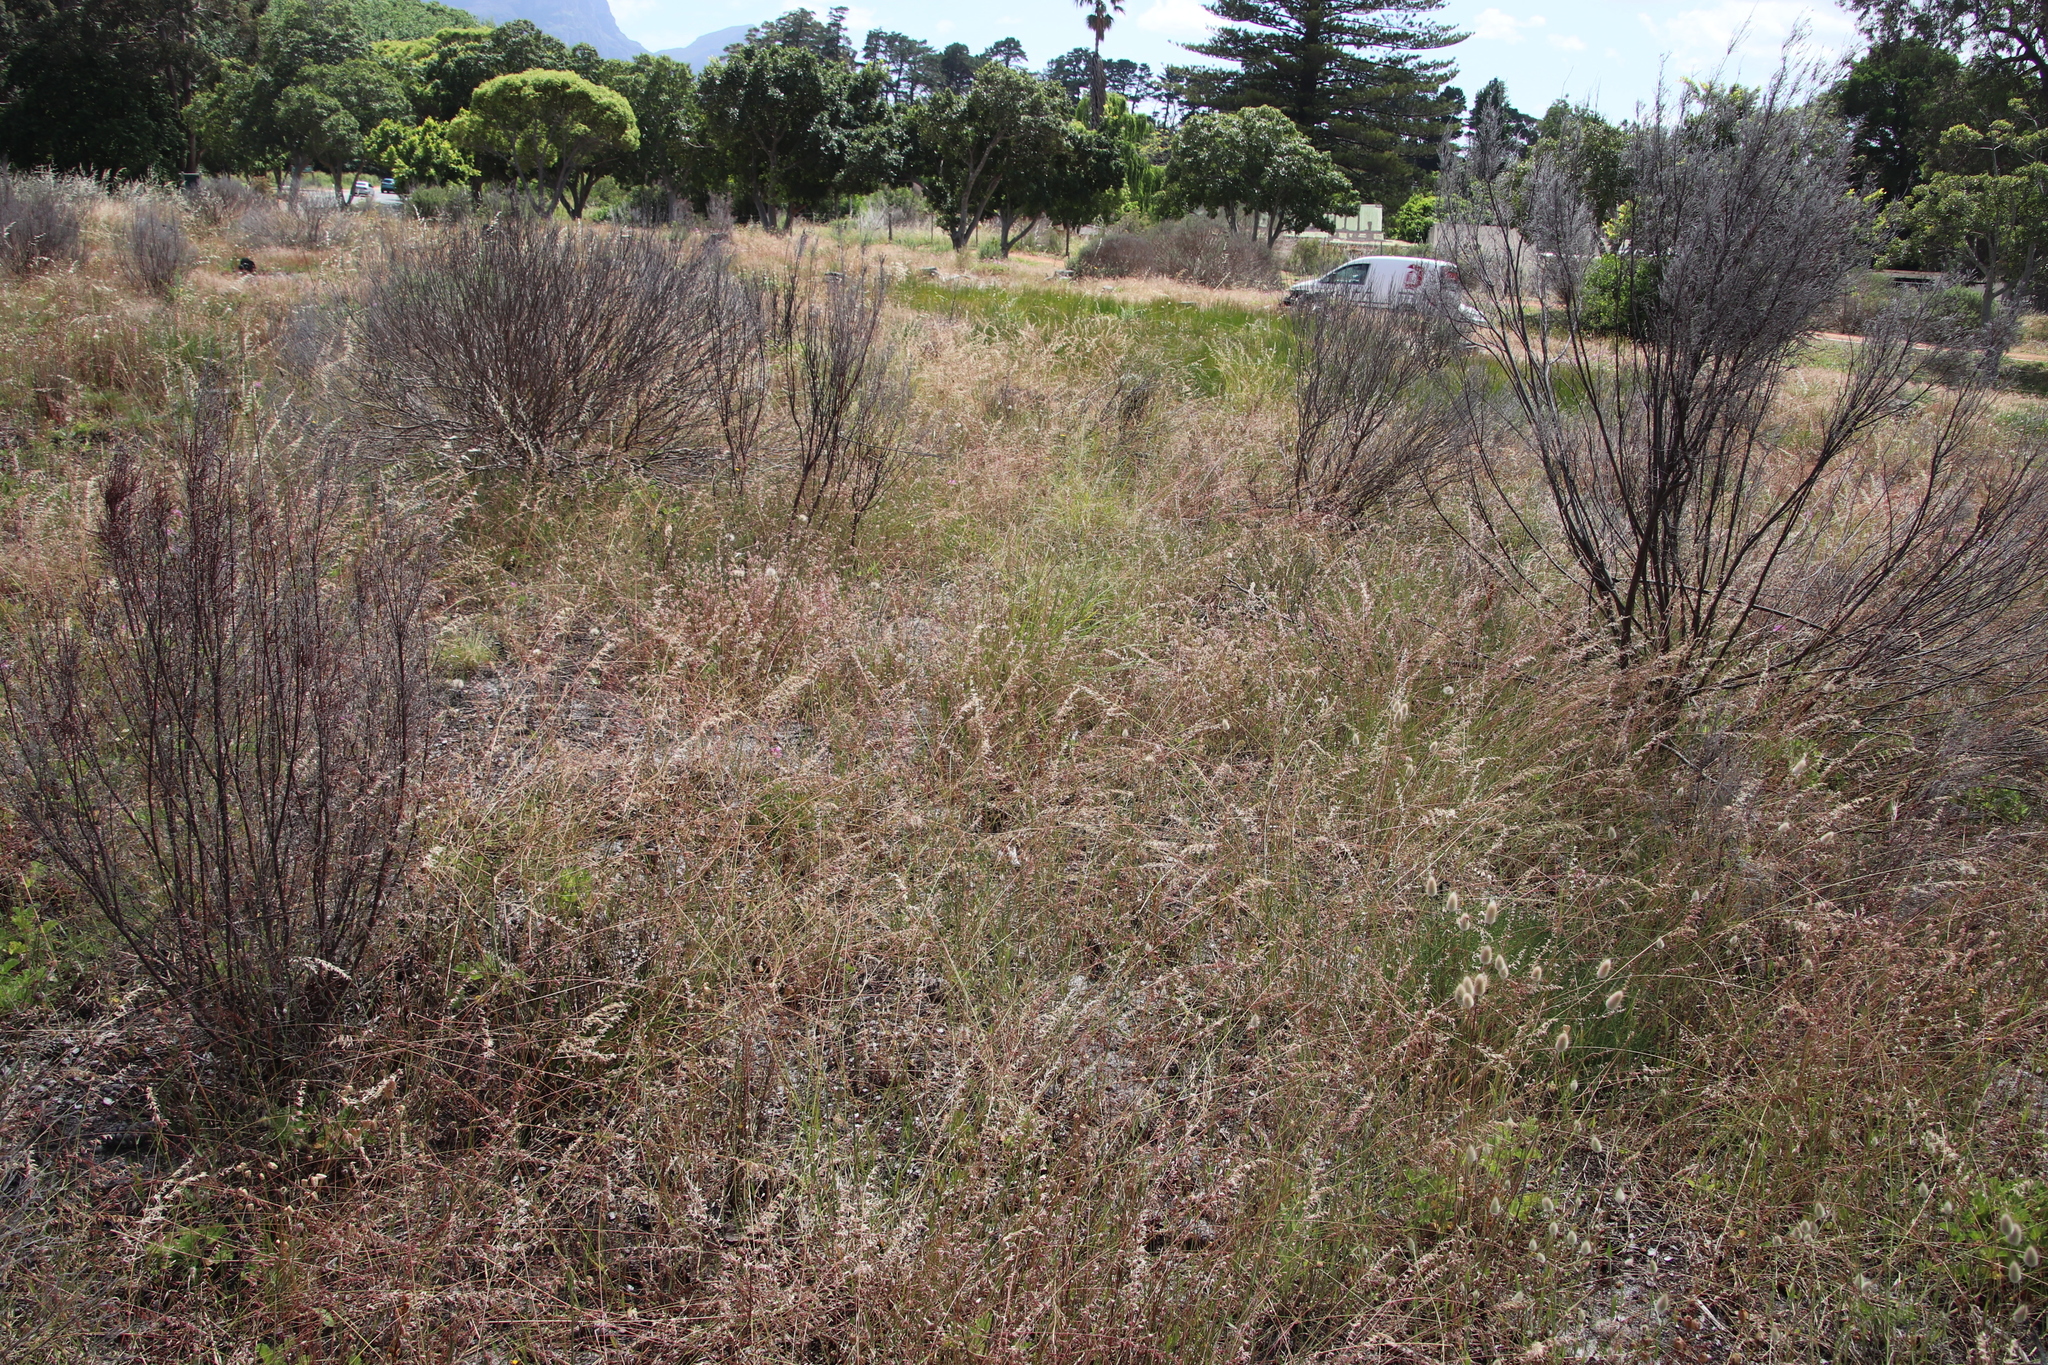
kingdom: Plantae
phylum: Tracheophyta
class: Liliopsida
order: Poales
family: Poaceae
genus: Ehrharta
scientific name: Ehrharta calycina
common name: Perennial veldtgrass
